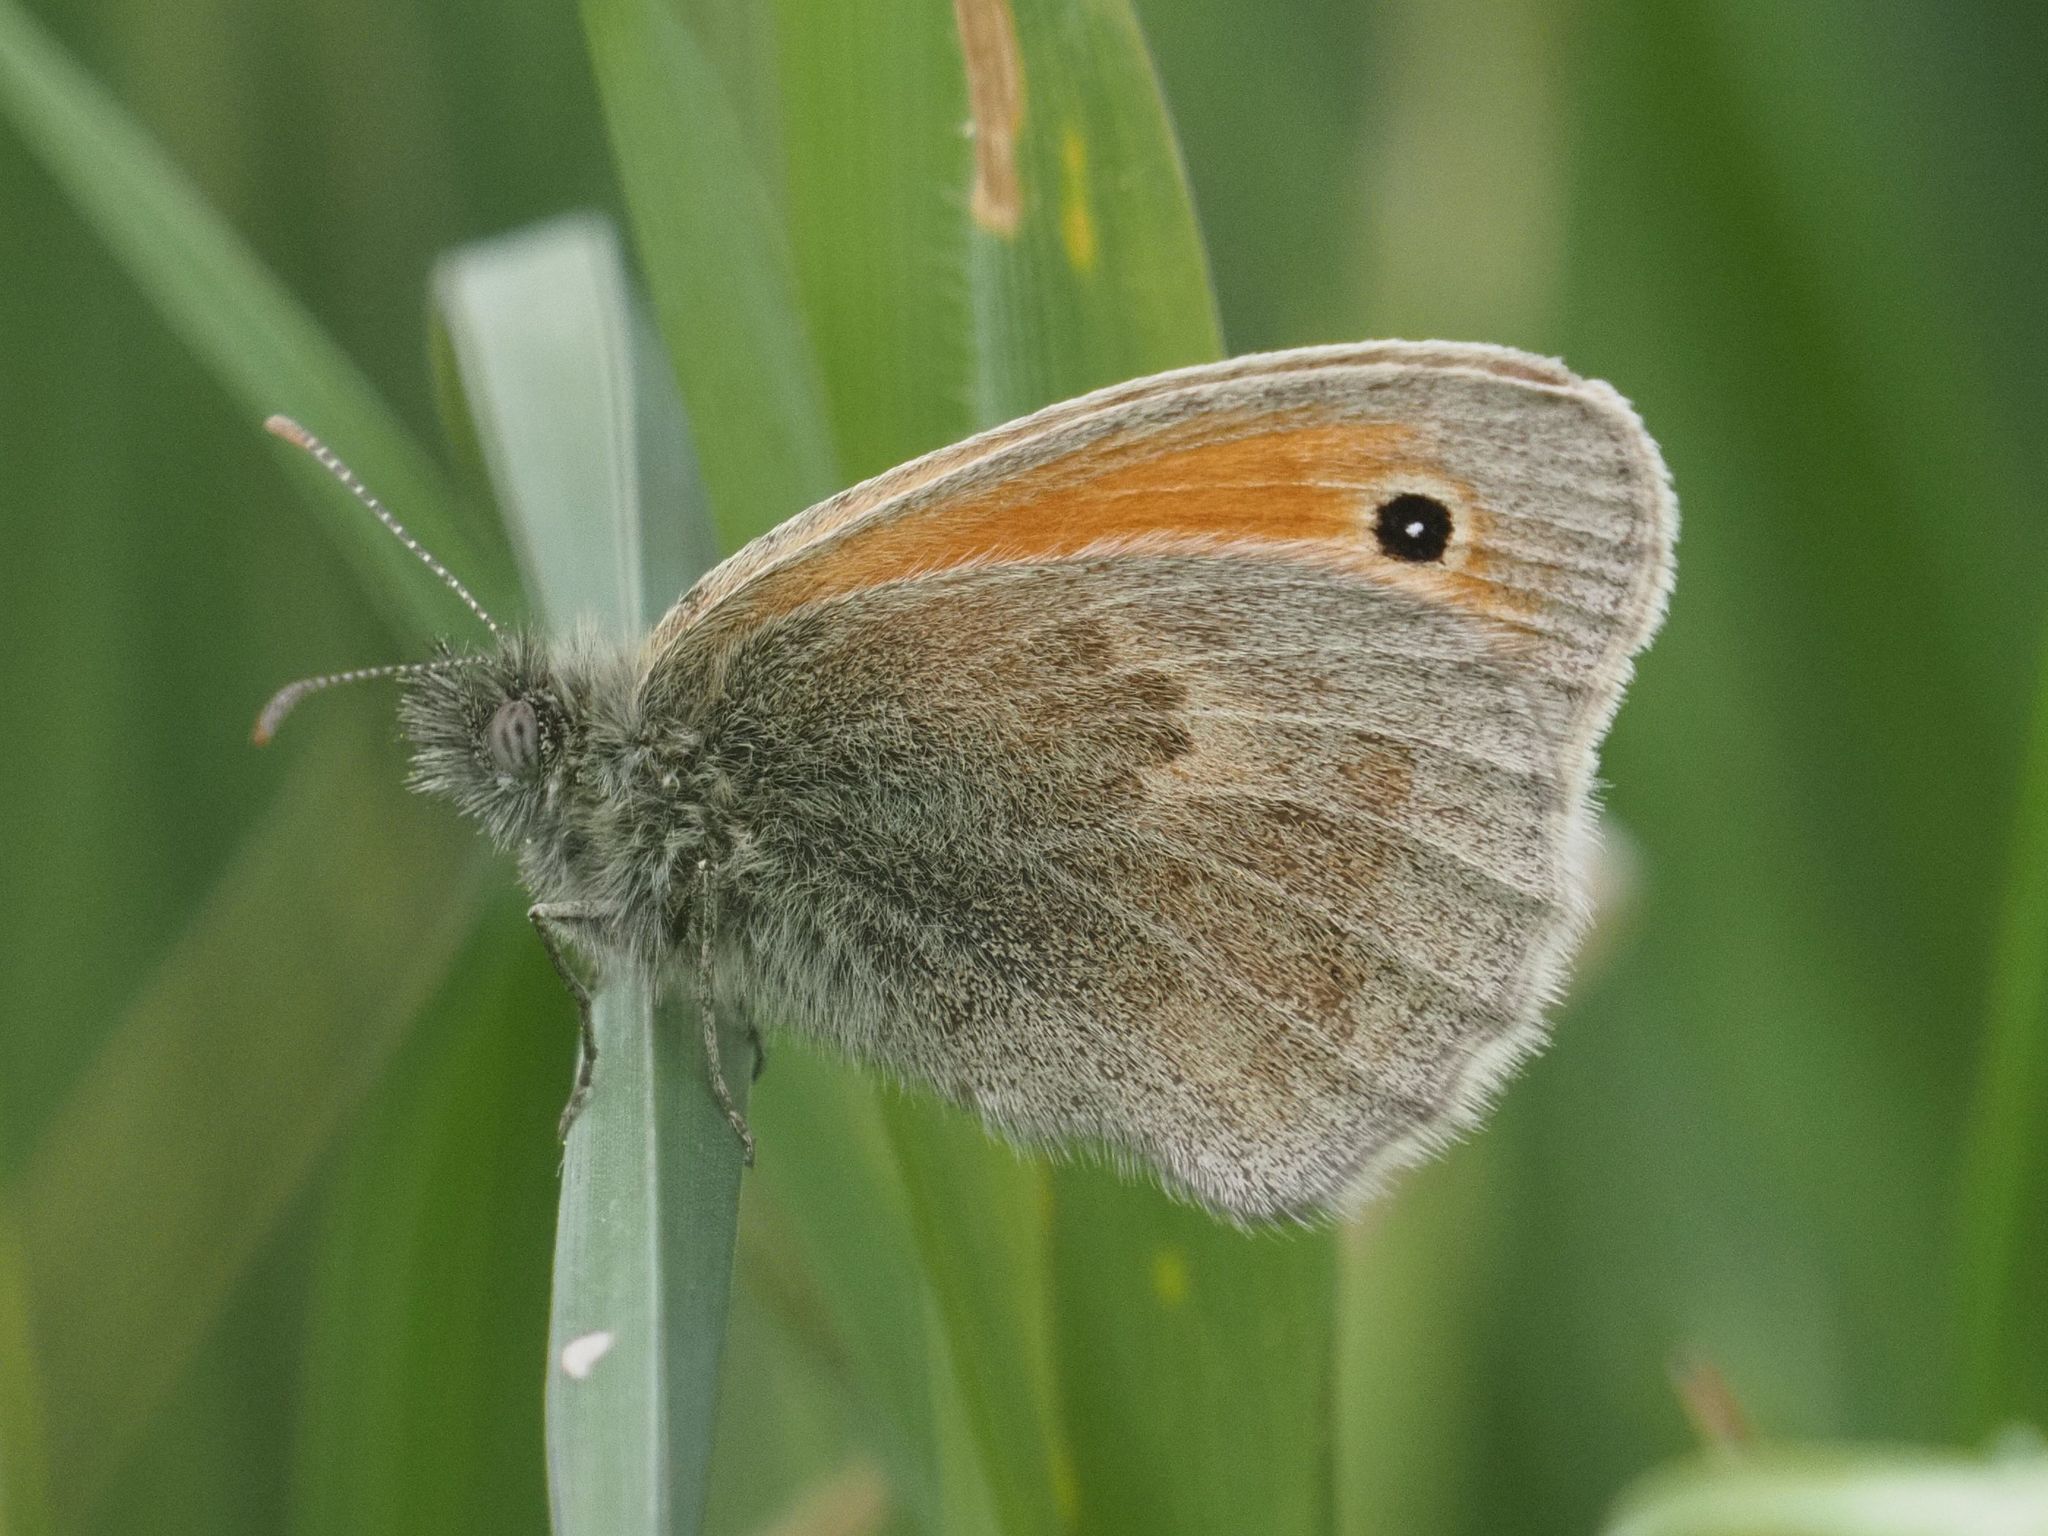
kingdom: Animalia
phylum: Arthropoda
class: Insecta
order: Lepidoptera
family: Nymphalidae
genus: Coenonympha
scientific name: Coenonympha pamphilus
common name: Small heath
